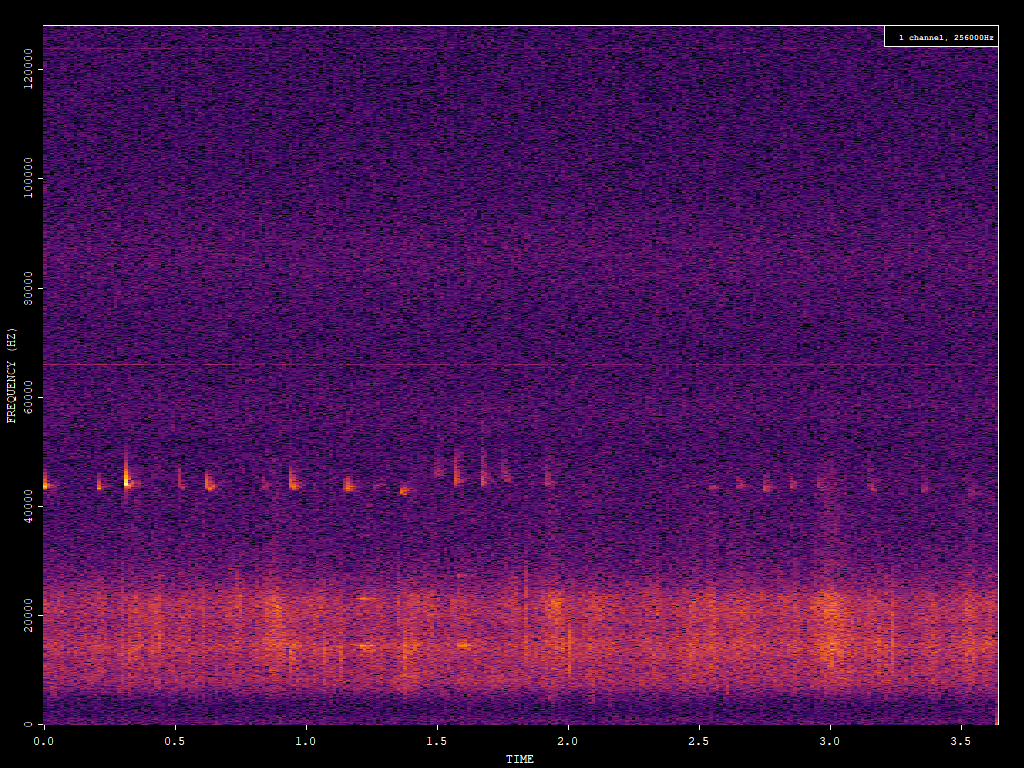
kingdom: Animalia
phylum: Chordata
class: Mammalia
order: Chiroptera
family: Vespertilionidae
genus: Pipistrellus
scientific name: Pipistrellus pipistrellus
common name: Common pipistrelle
